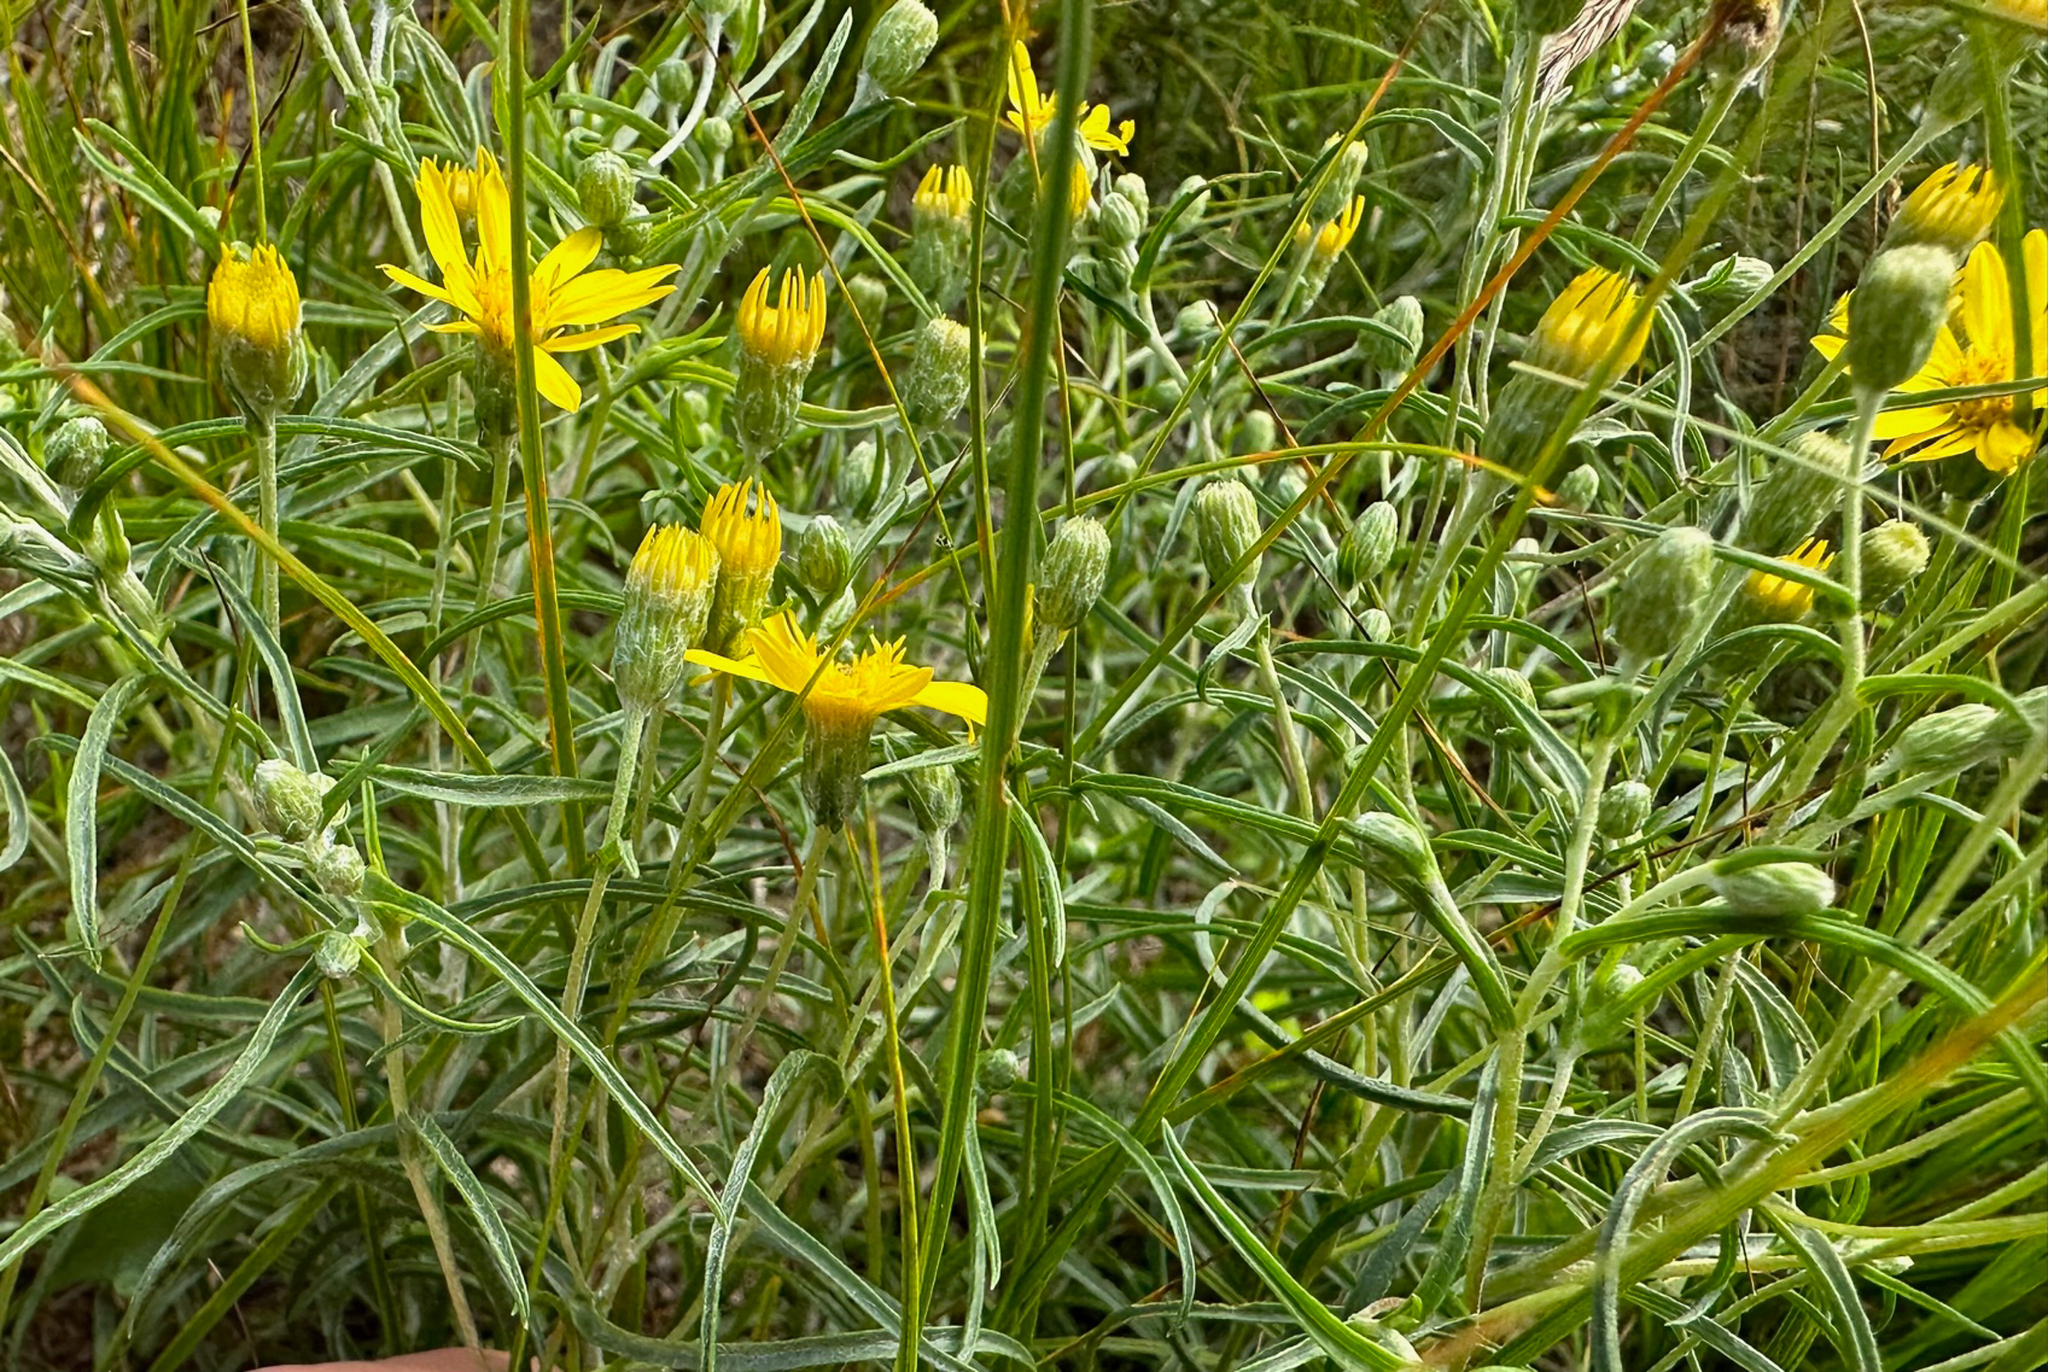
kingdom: Plantae
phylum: Tracheophyta
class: Magnoliopsida
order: Asterales
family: Asteraceae
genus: Pityopsis
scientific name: Pityopsis falcata
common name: Sickle-leaved goldenaster
